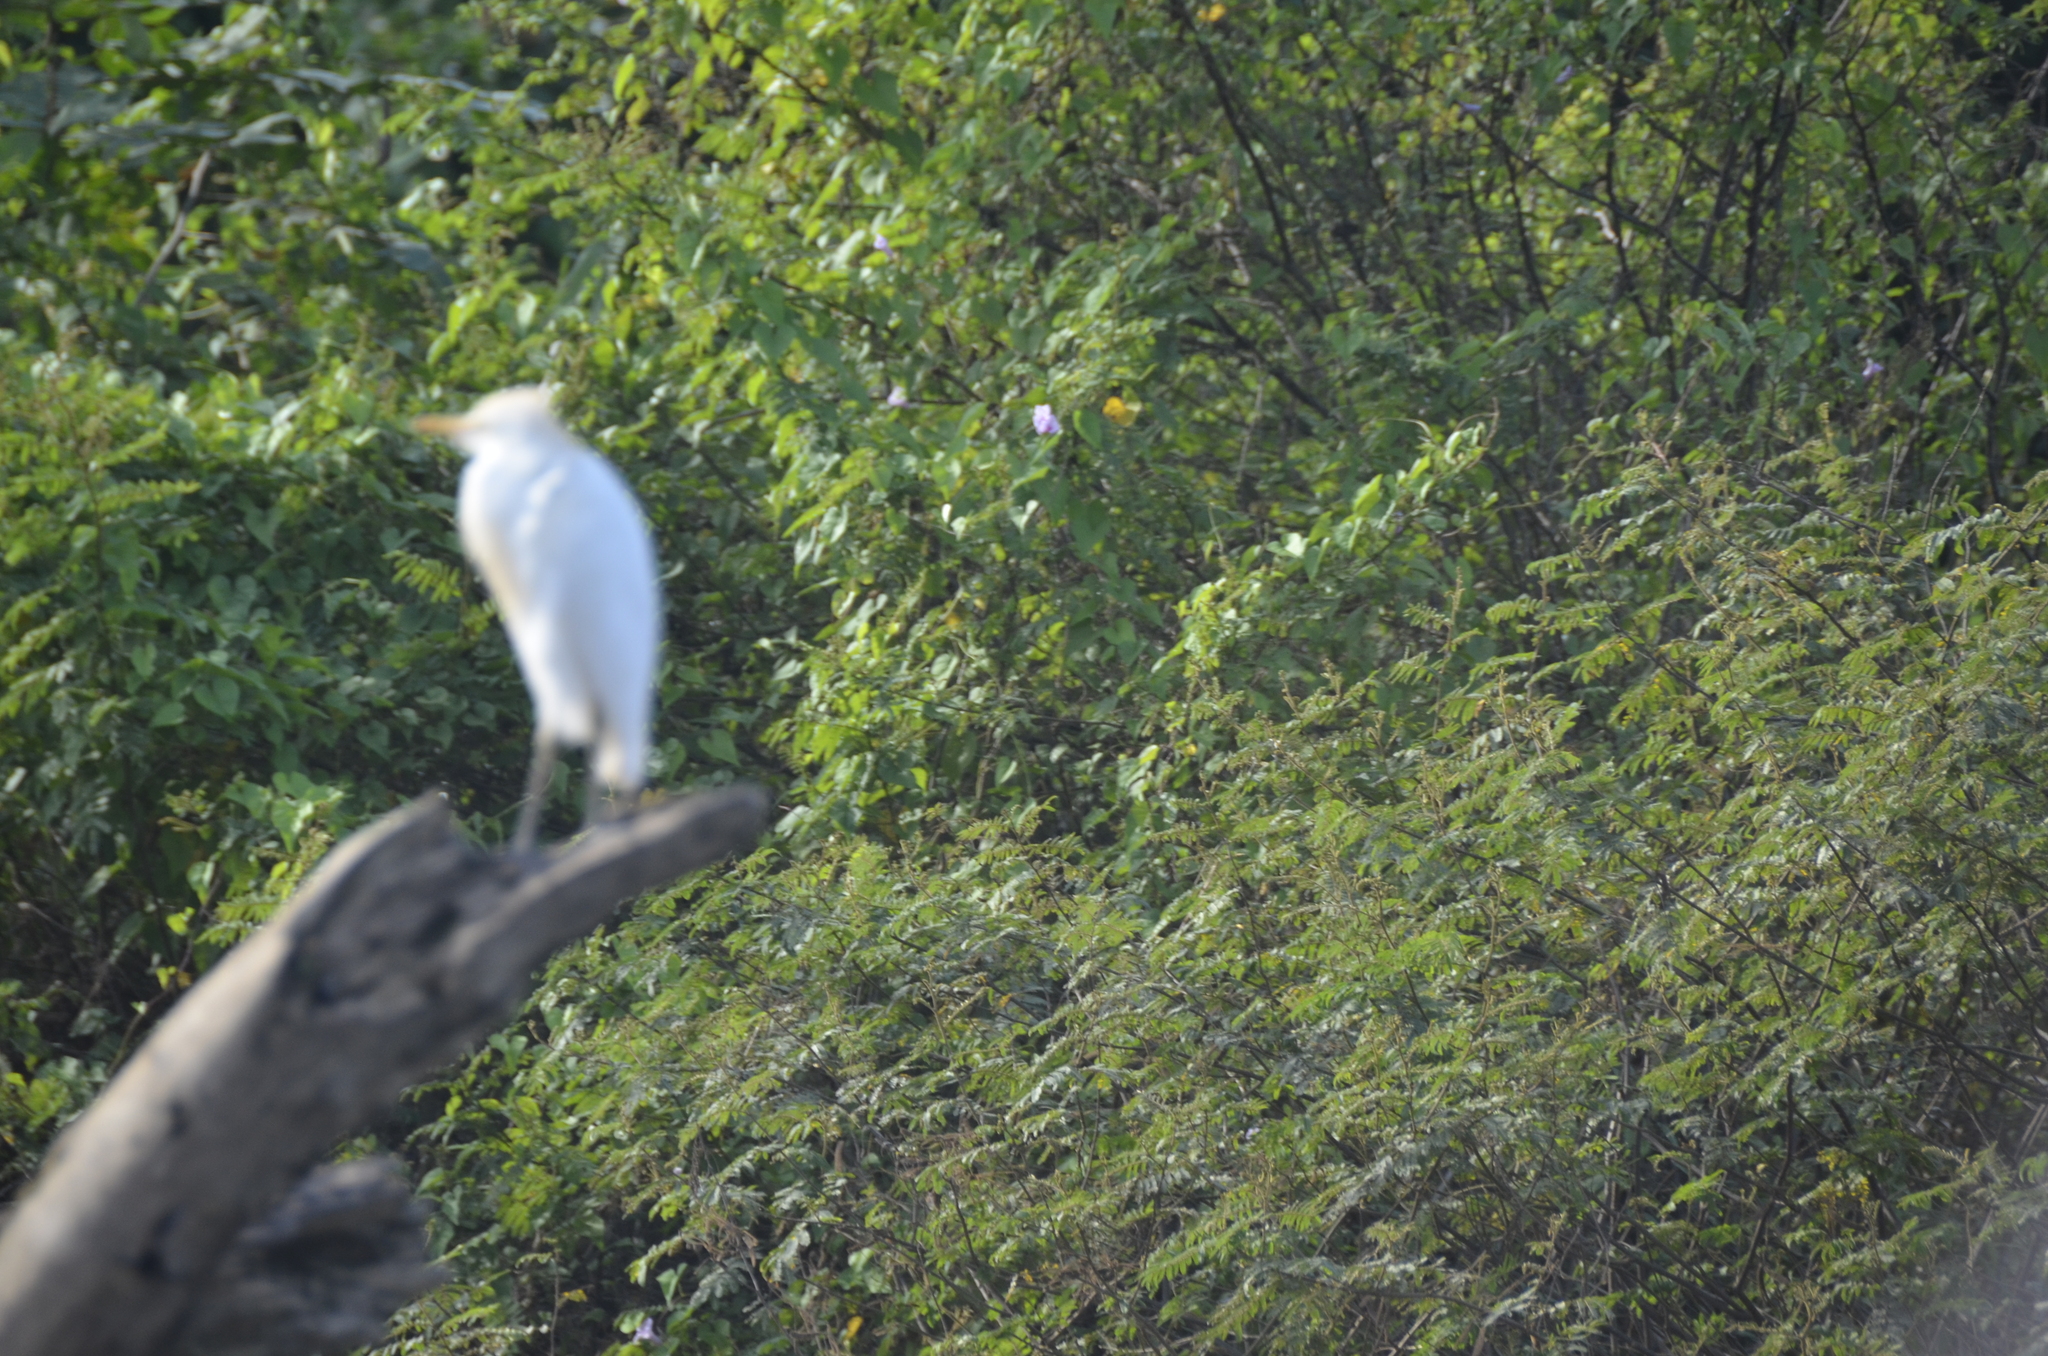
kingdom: Animalia
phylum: Chordata
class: Aves
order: Pelecaniformes
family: Ardeidae
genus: Bubulcus
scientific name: Bubulcus ibis
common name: Cattle egret
